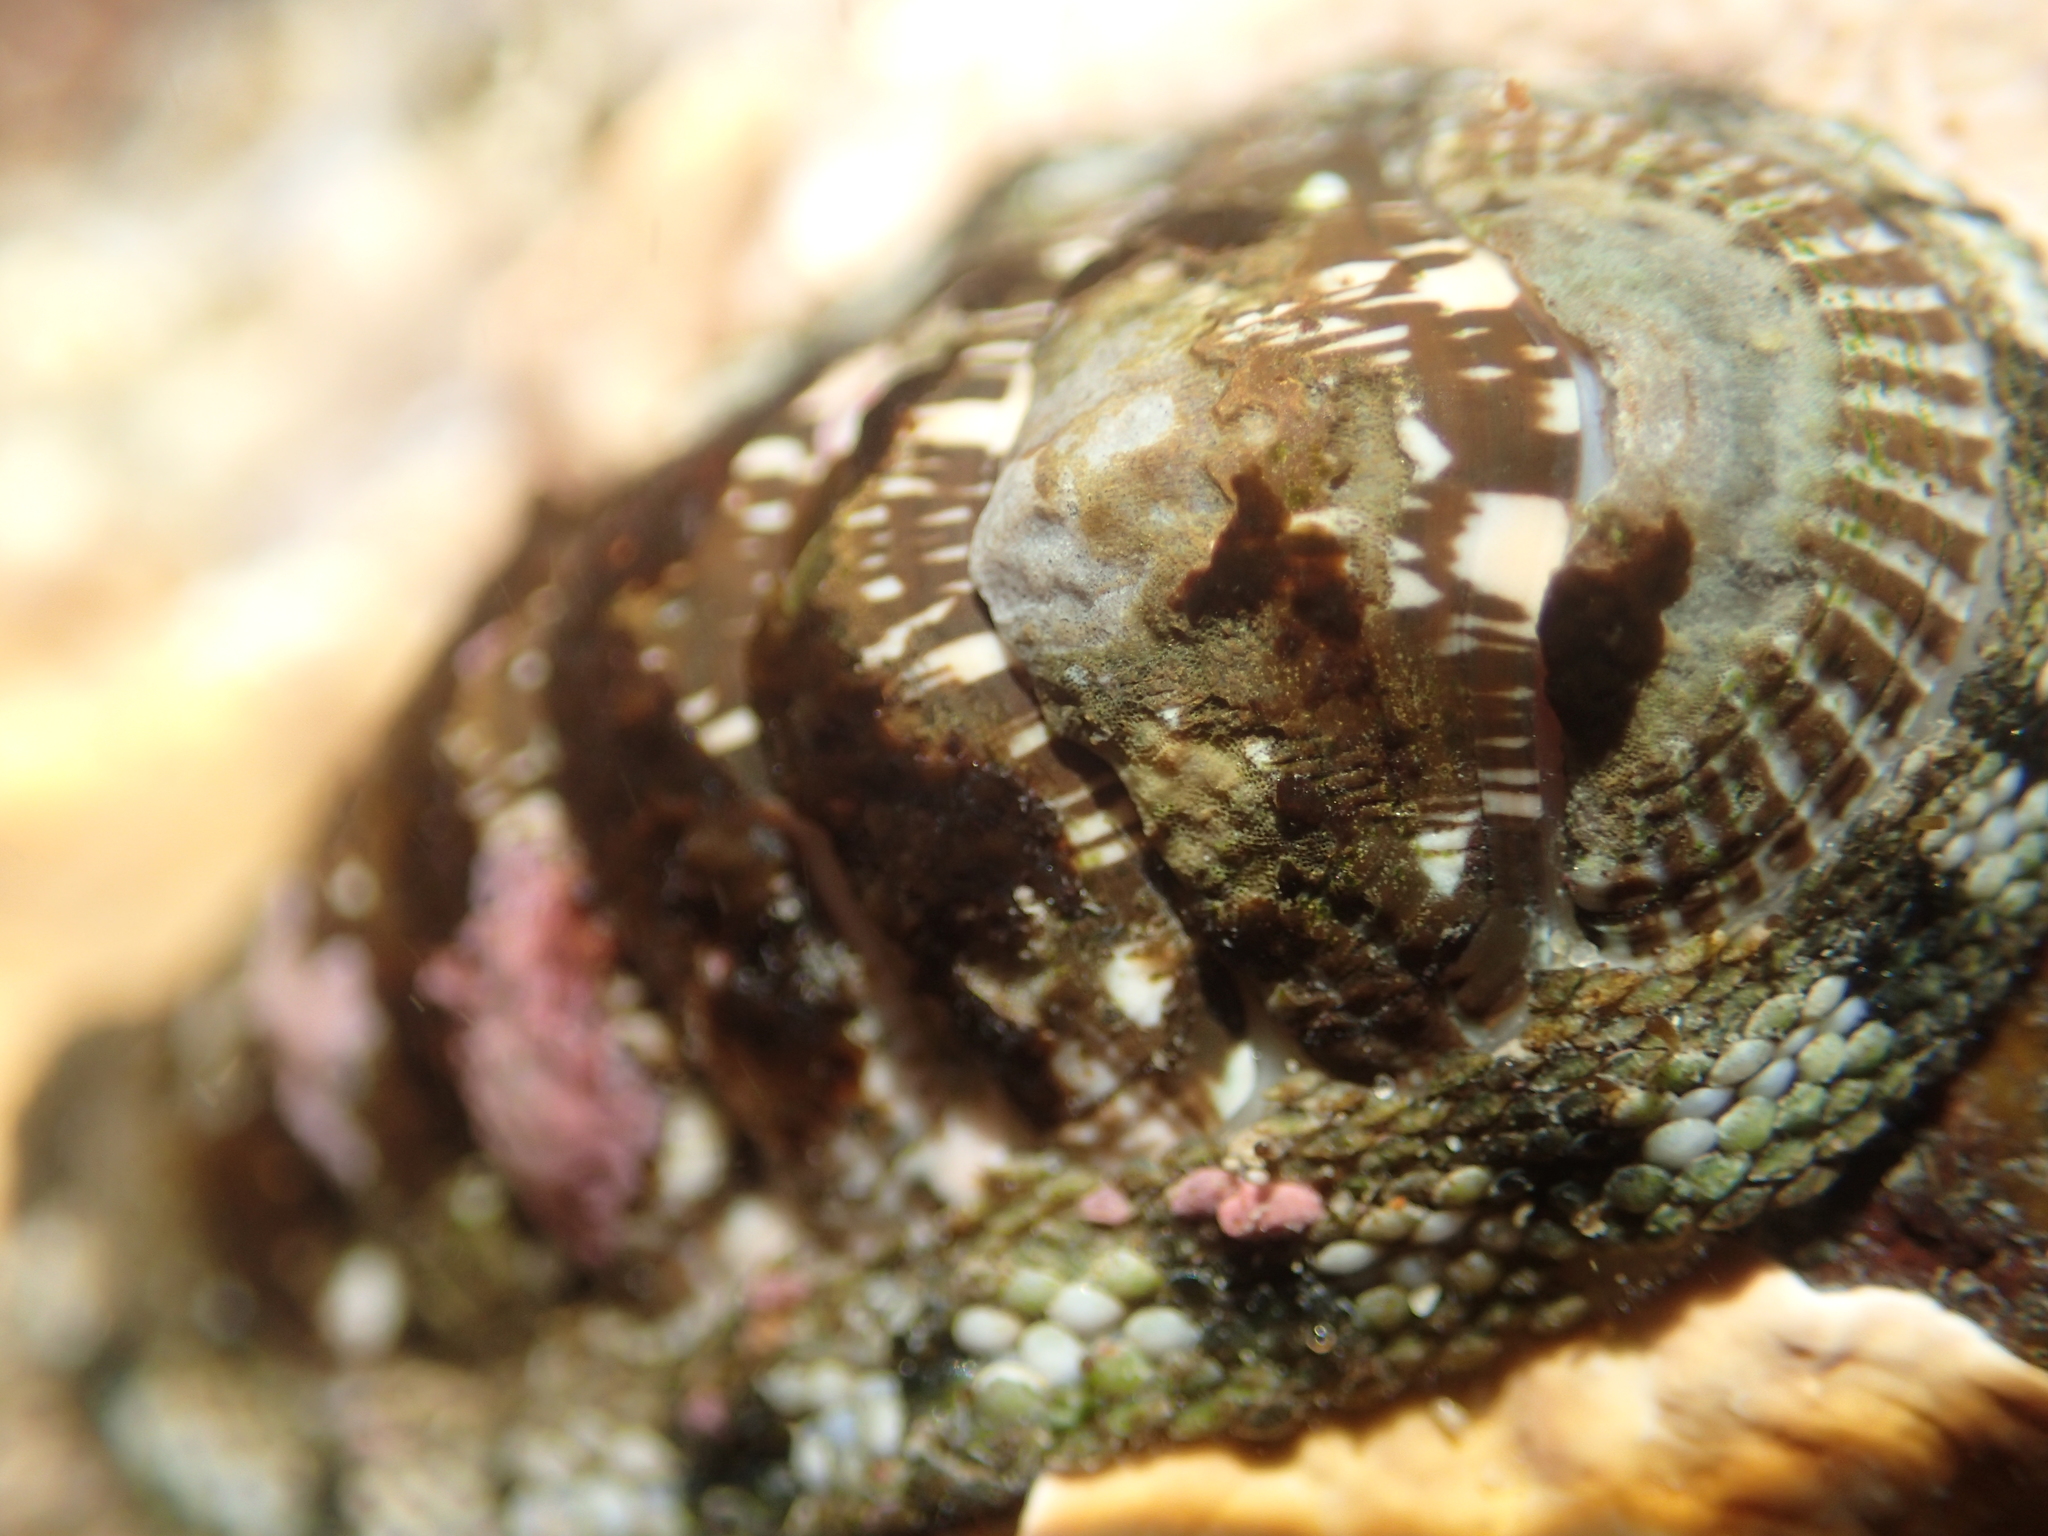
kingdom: Animalia
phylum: Mollusca
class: Polyplacophora
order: Chitonida
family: Chitonidae
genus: Sypharochiton
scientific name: Sypharochiton sinclairi
